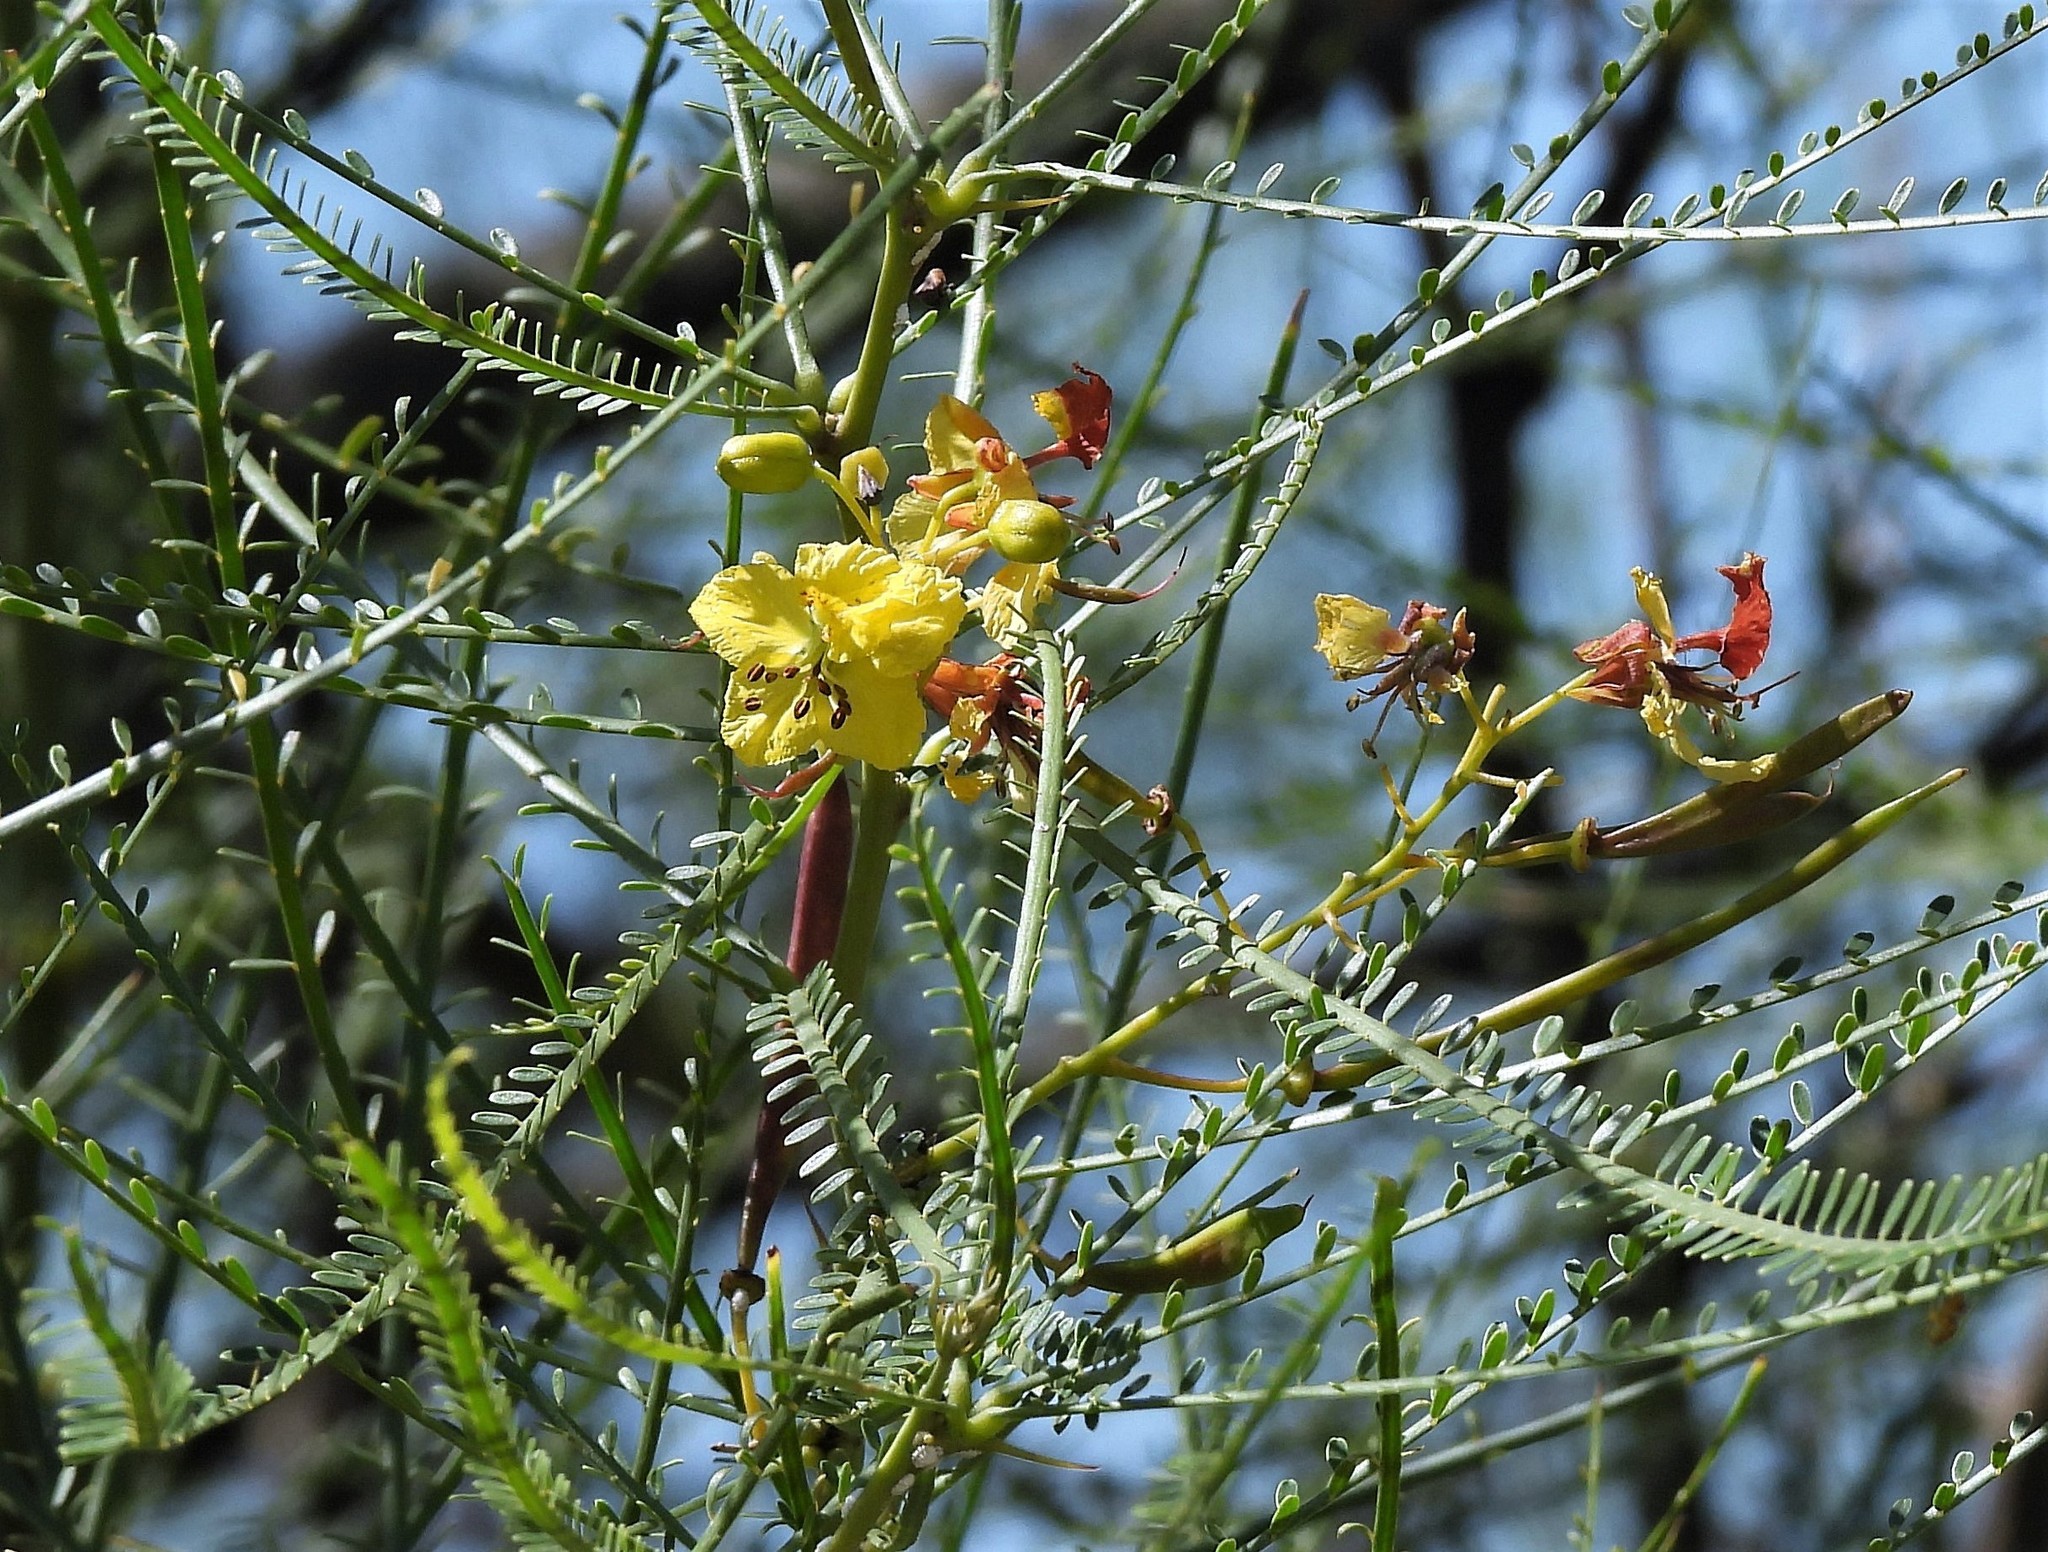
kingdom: Plantae
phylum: Tracheophyta
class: Magnoliopsida
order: Fabales
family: Fabaceae
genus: Parkinsonia
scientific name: Parkinsonia aculeata
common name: Jerusalem thorn
